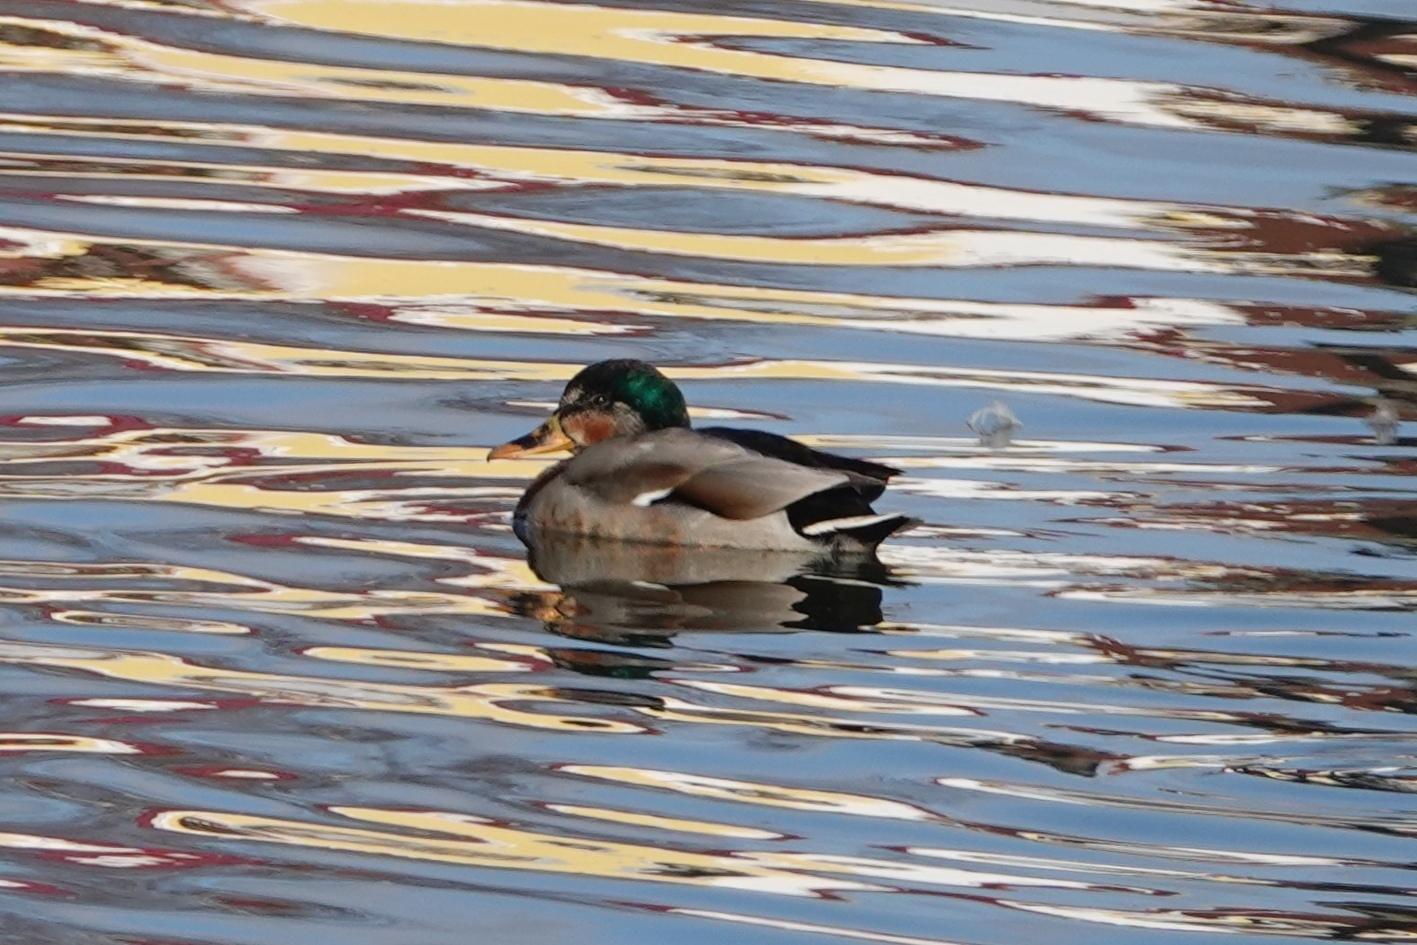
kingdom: Animalia
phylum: Chordata
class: Aves
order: Anseriformes
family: Anatidae
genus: Anas
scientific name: Anas platyrhynchos
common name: Mallard
